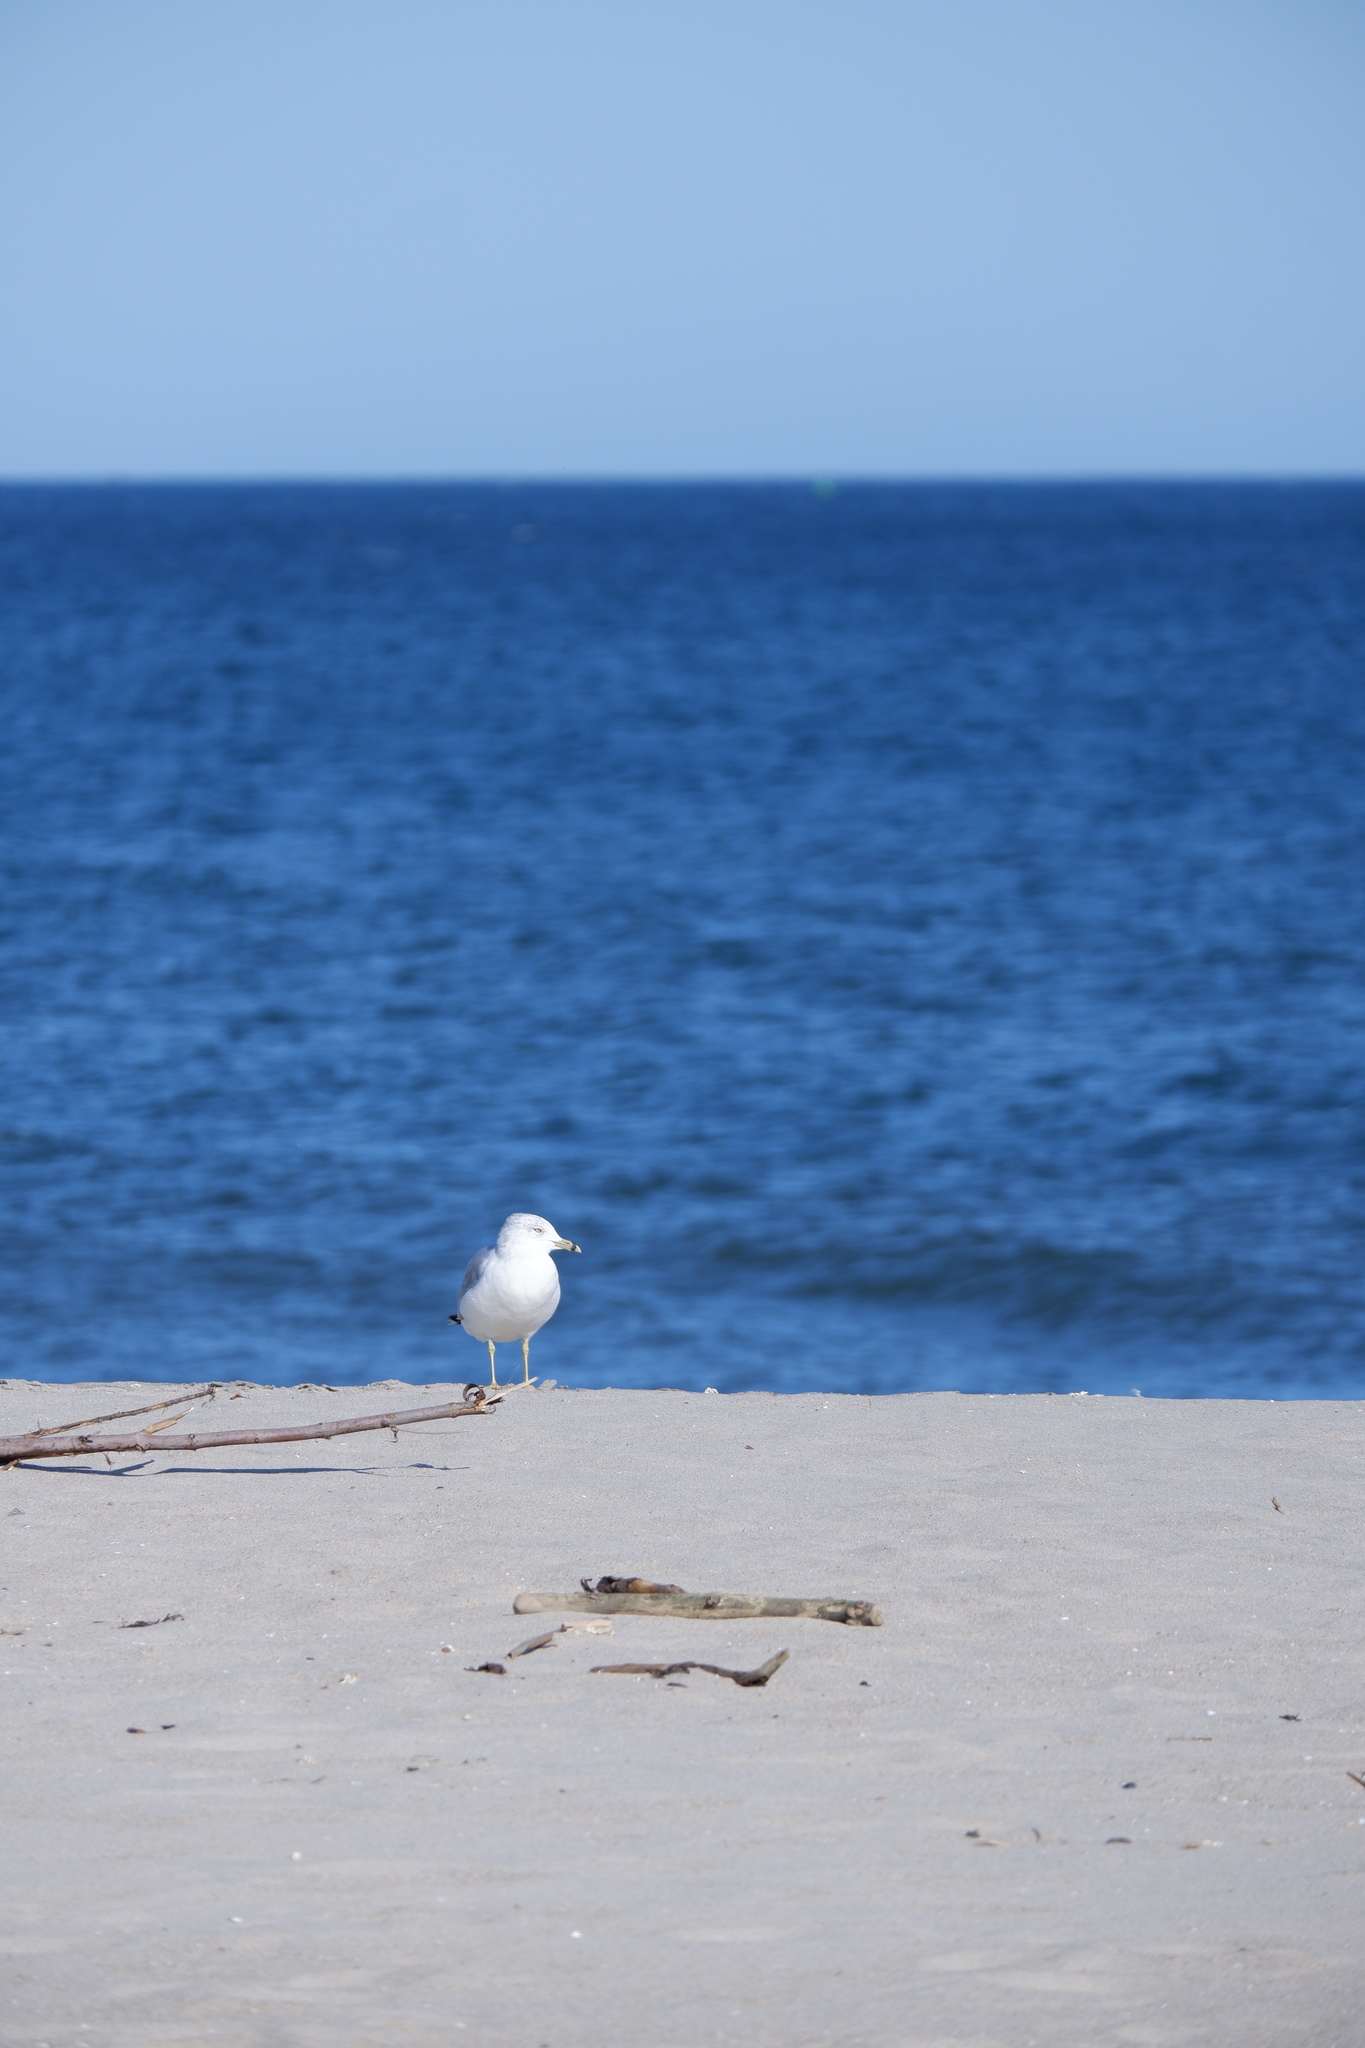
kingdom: Animalia
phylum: Chordata
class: Aves
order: Charadriiformes
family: Laridae
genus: Larus
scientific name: Larus delawarensis
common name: Ring-billed gull
